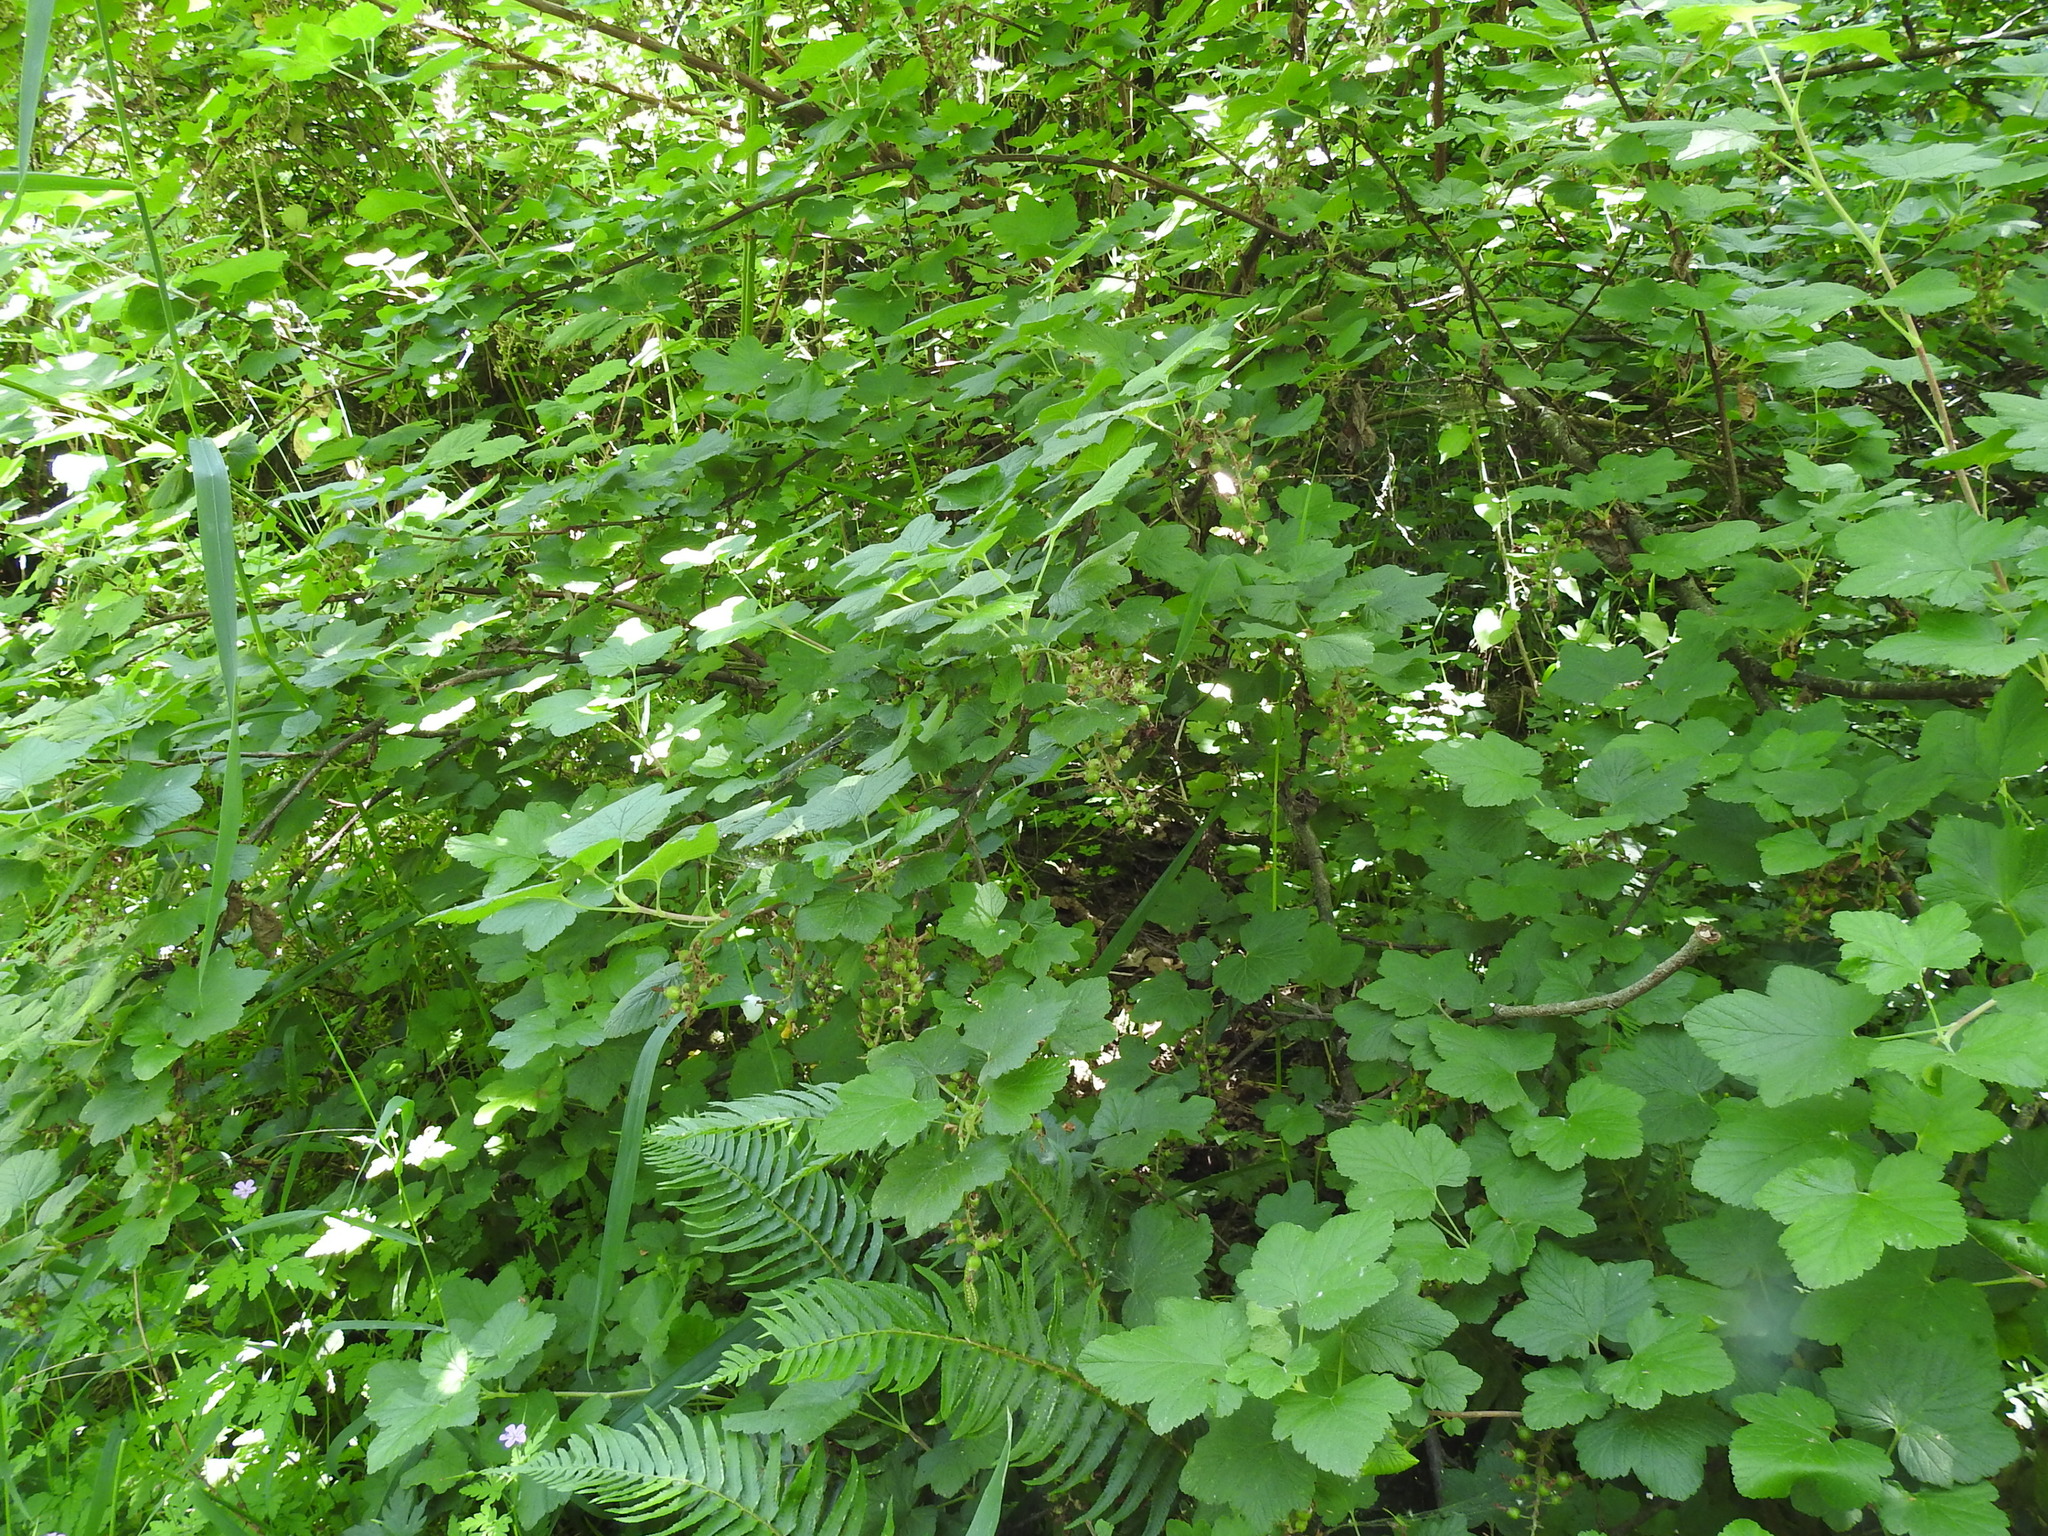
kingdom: Plantae
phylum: Tracheophyta
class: Magnoliopsida
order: Saxifragales
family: Grossulariaceae
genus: Ribes
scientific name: Ribes sanguineum
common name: Flowering currant
